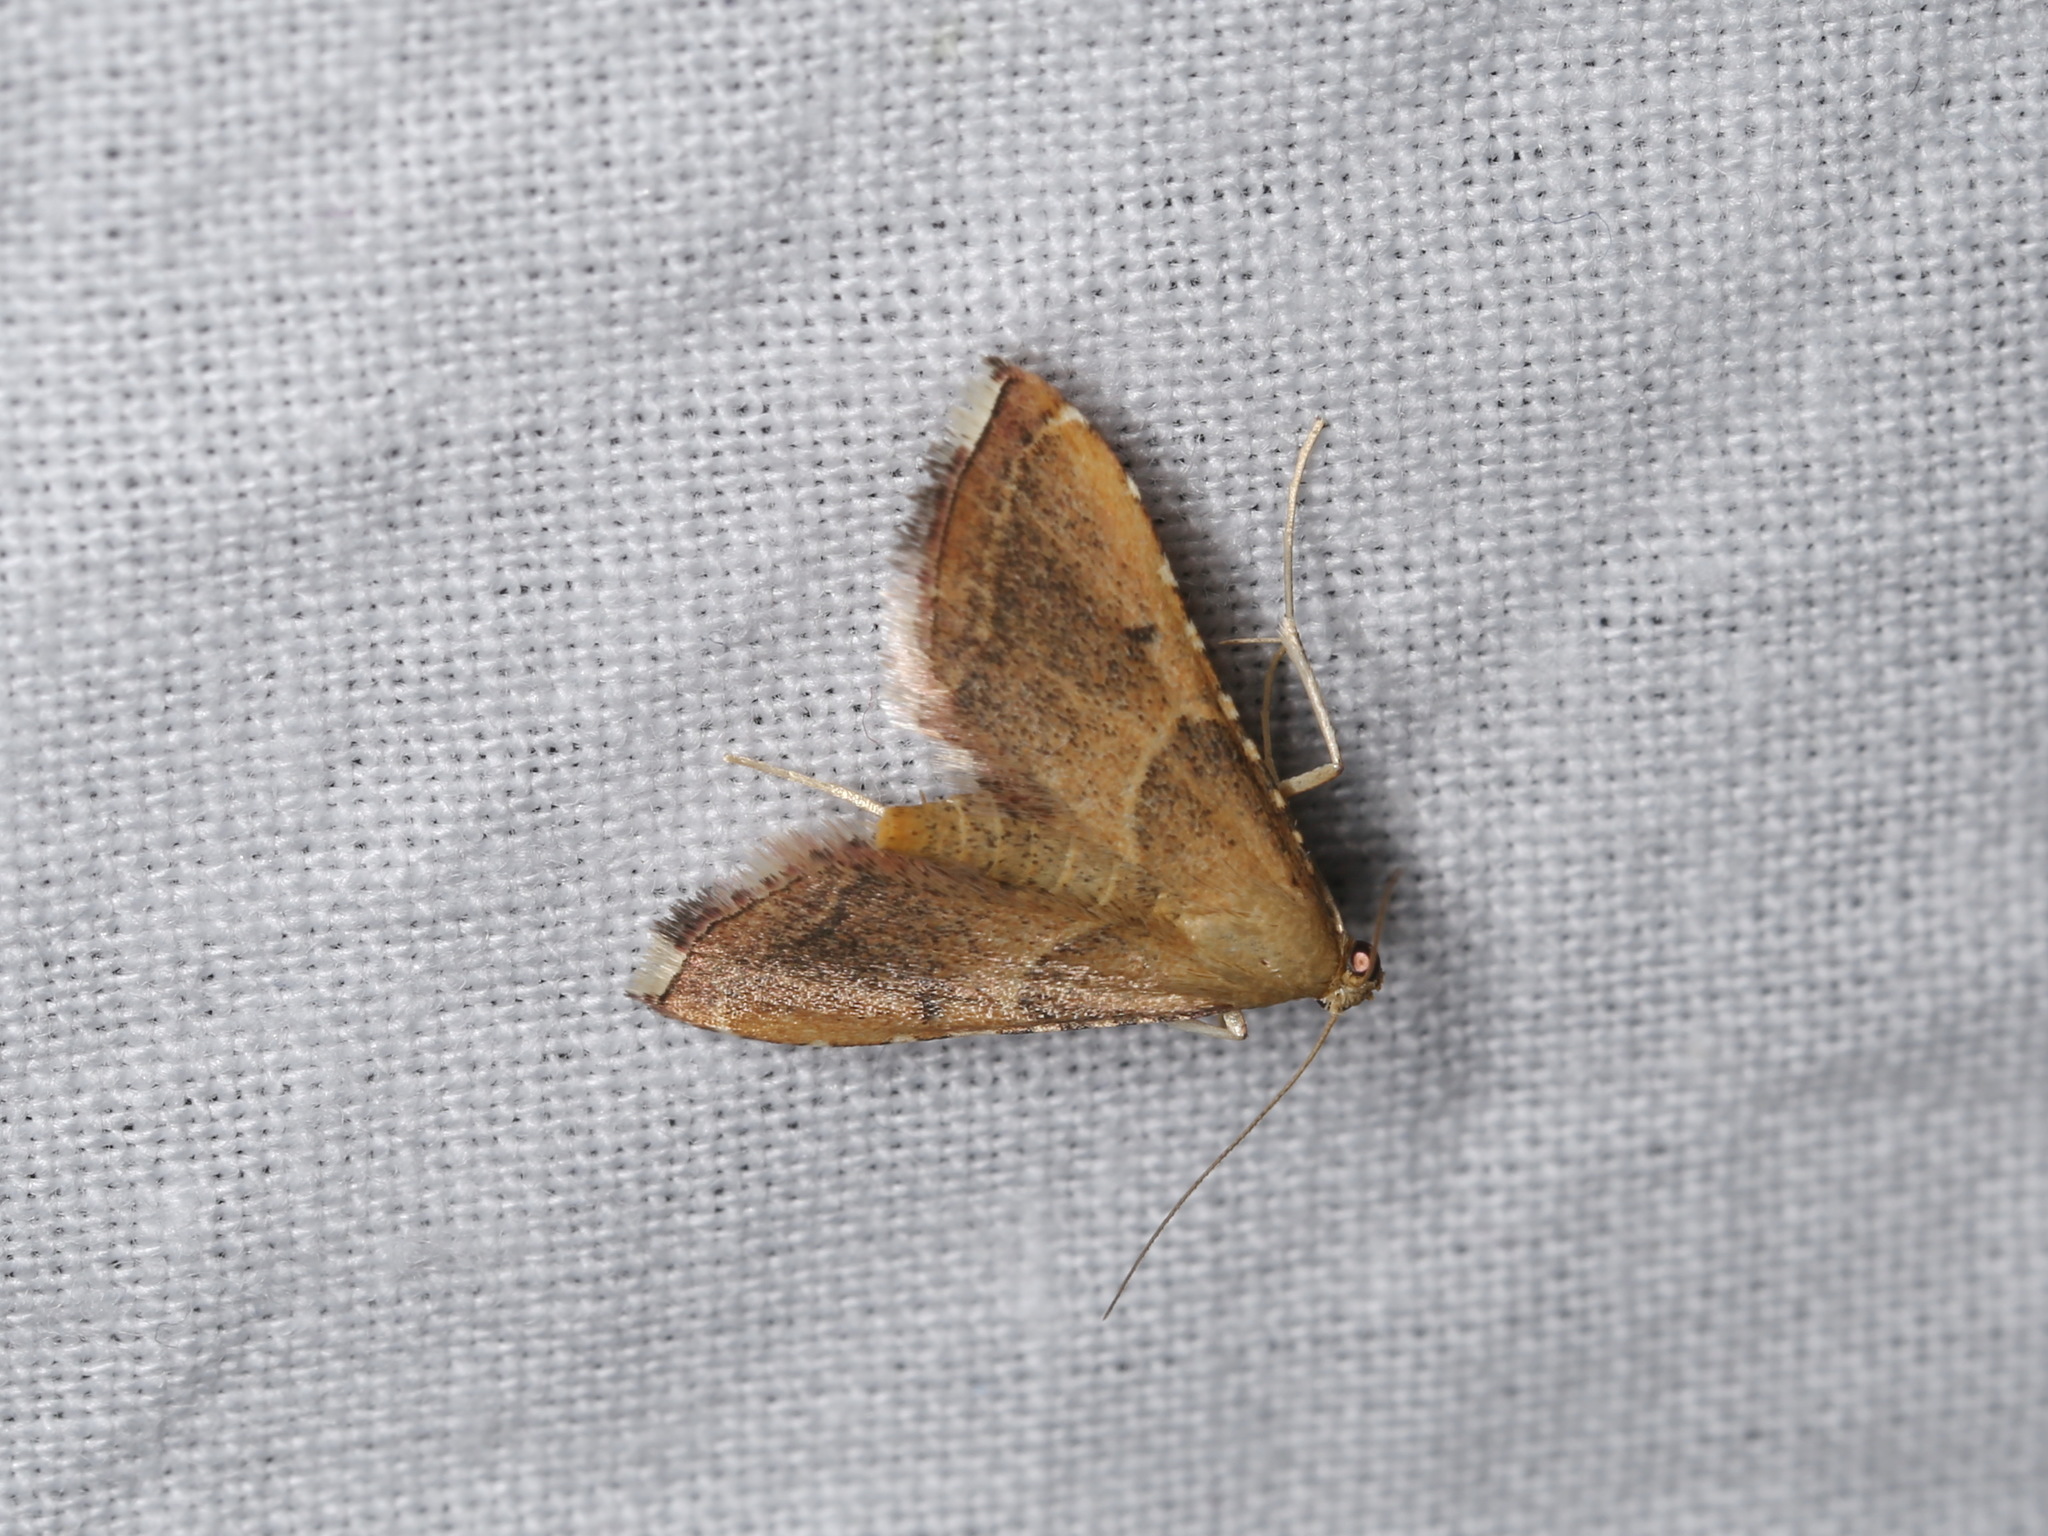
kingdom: Animalia
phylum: Arthropoda
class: Insecta
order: Lepidoptera
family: Pyralidae
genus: Endotricha
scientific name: Endotricha flammealis
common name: Rosy tabby
